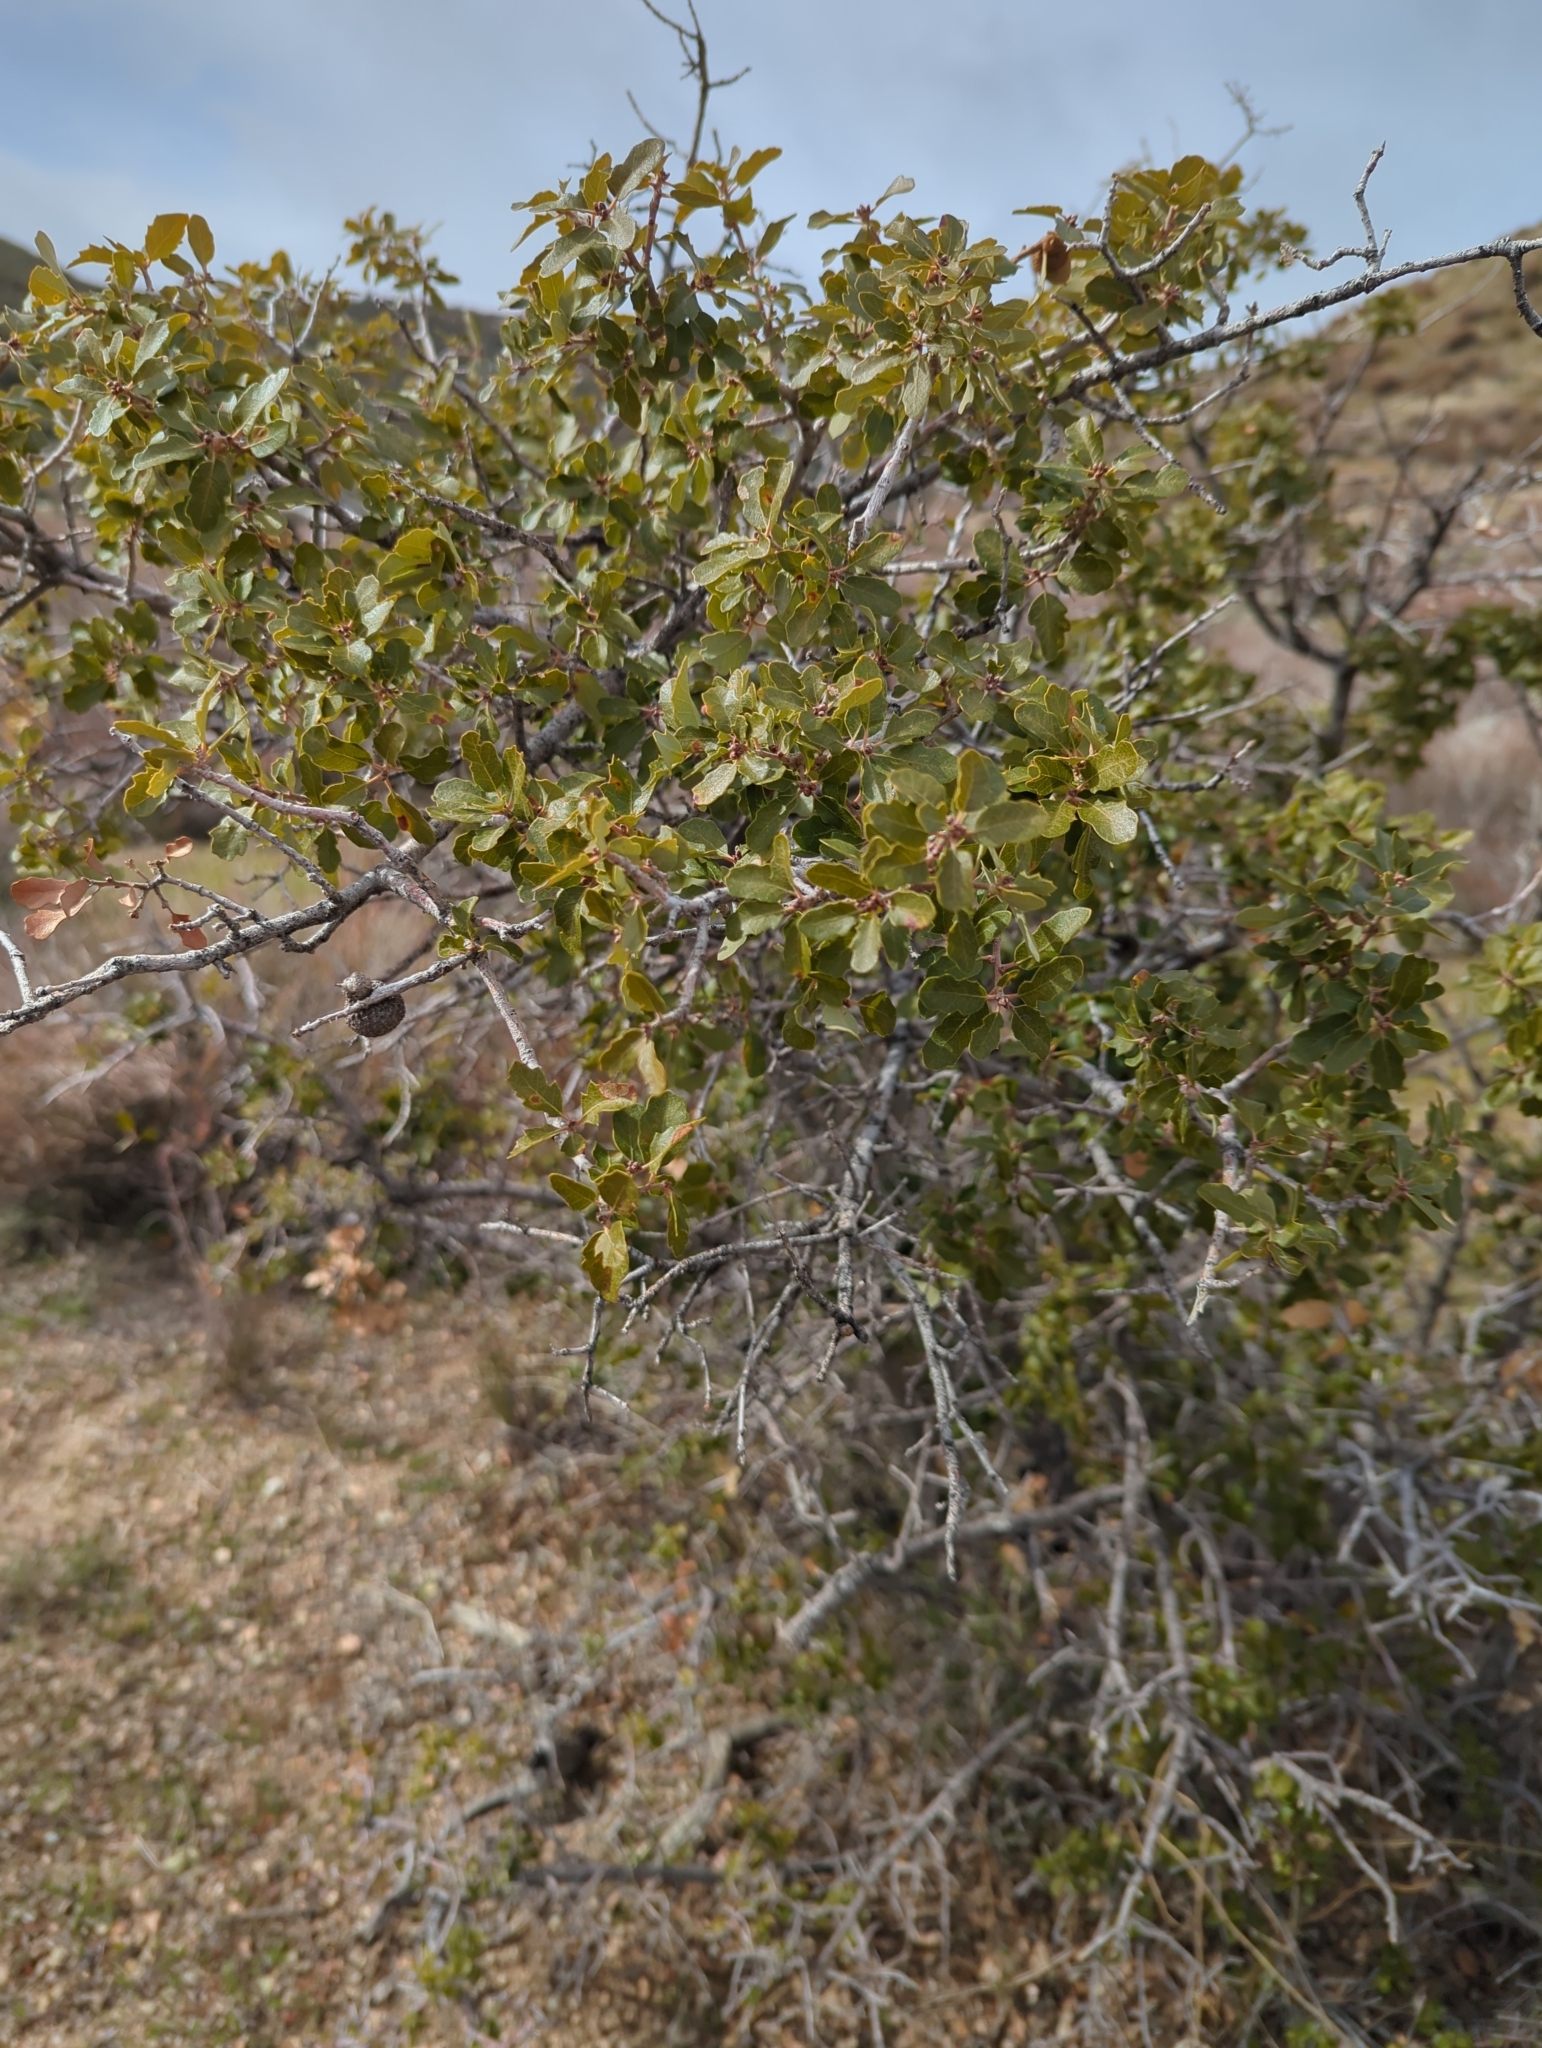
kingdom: Plantae
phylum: Tracheophyta
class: Magnoliopsida
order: Fagales
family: Fagaceae
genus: Quercus
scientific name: Quercus berberidifolia
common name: California scrub oak
